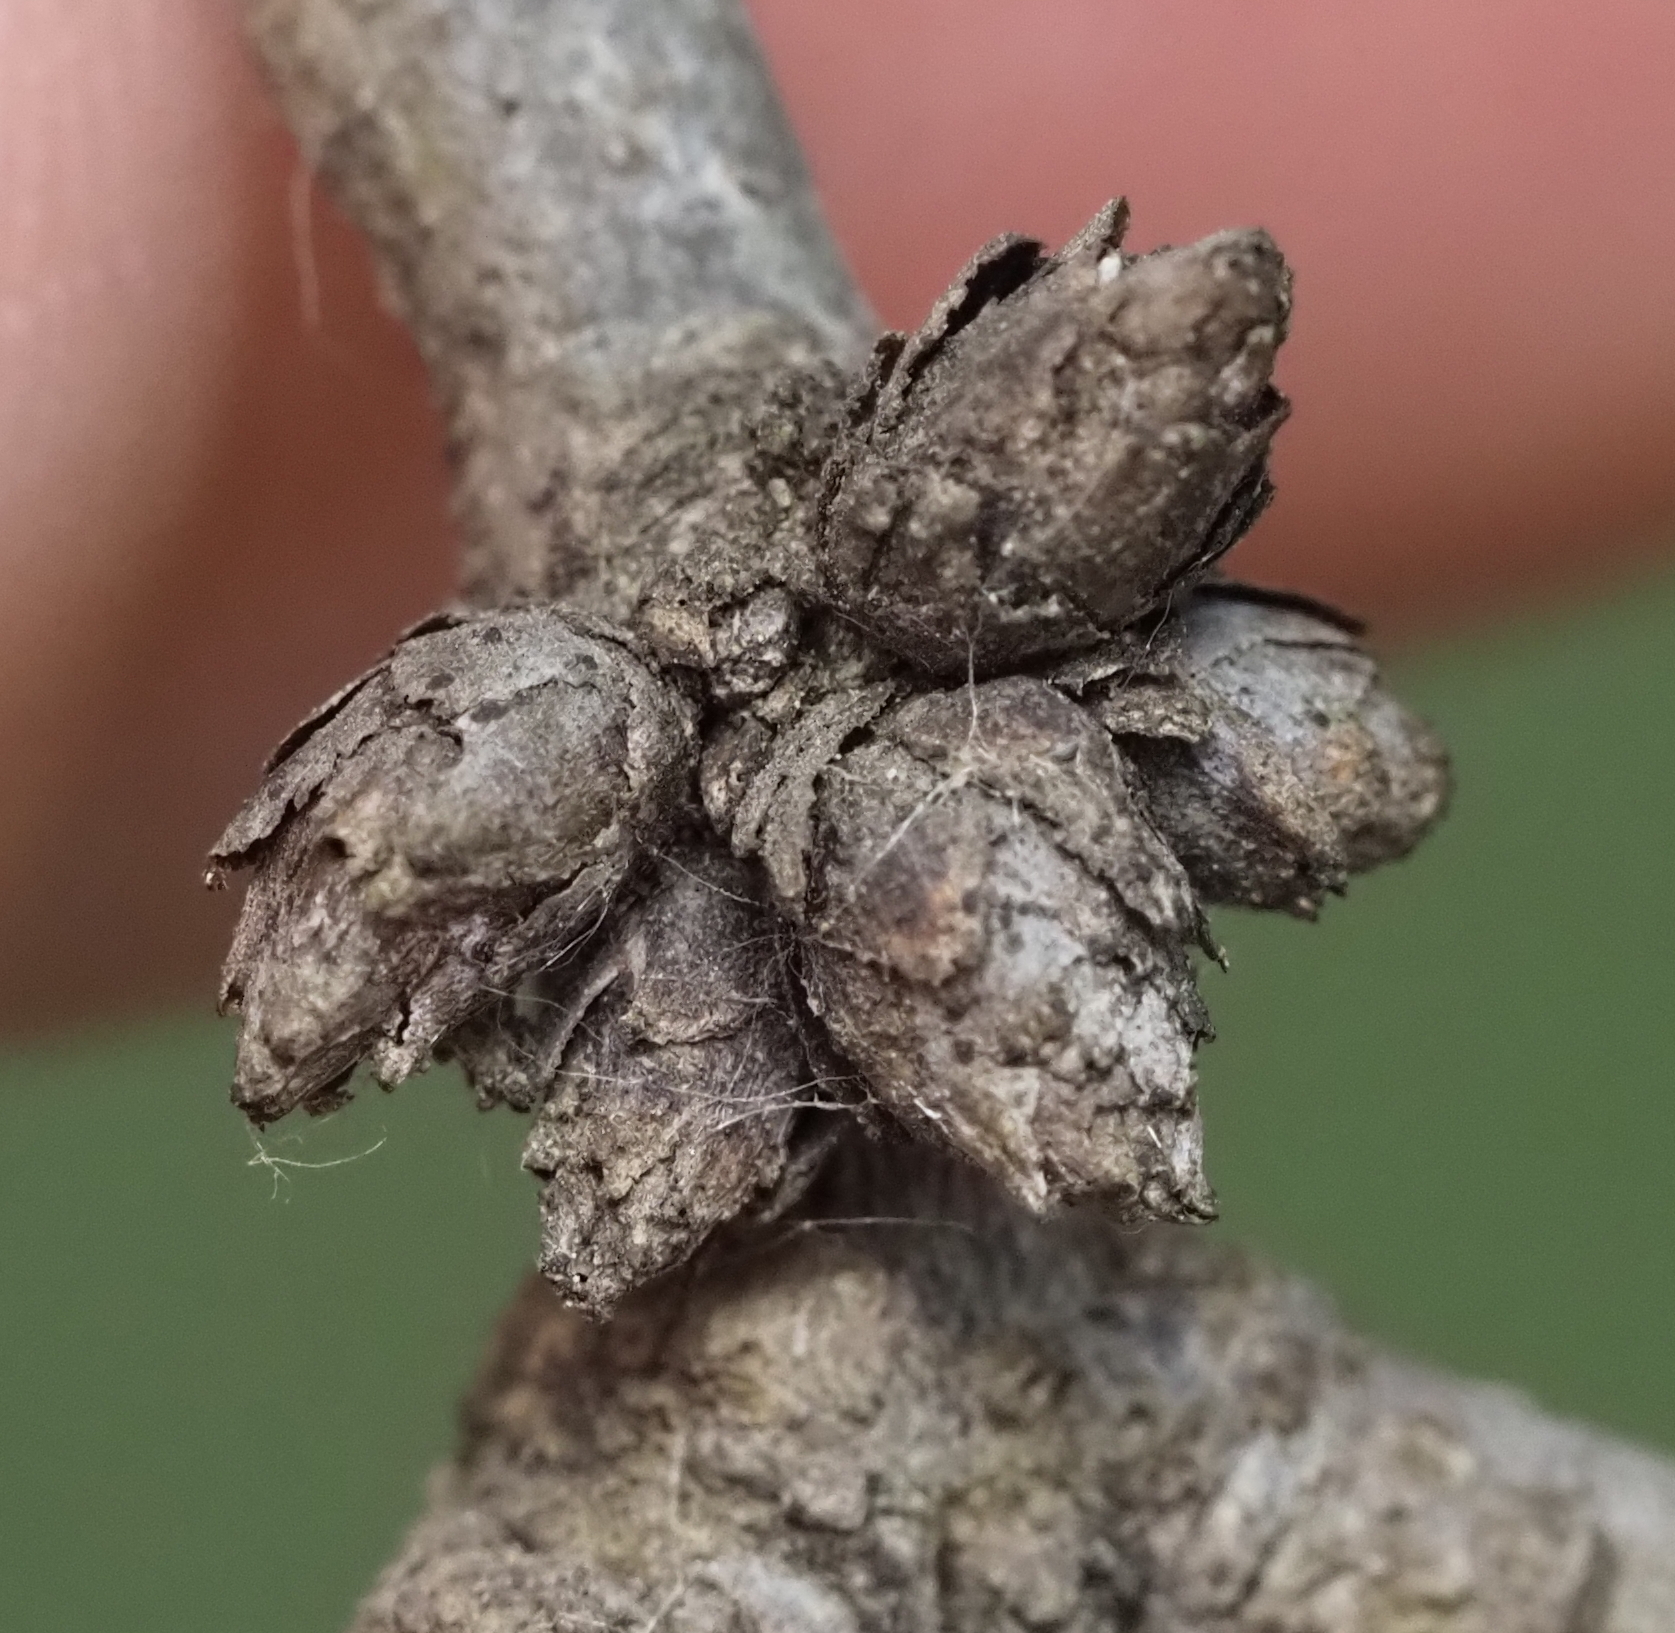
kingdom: Animalia
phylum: Arthropoda
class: Insecta
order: Diptera
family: Cecidomyiidae
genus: Arnoldiola
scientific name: Arnoldiola atra
